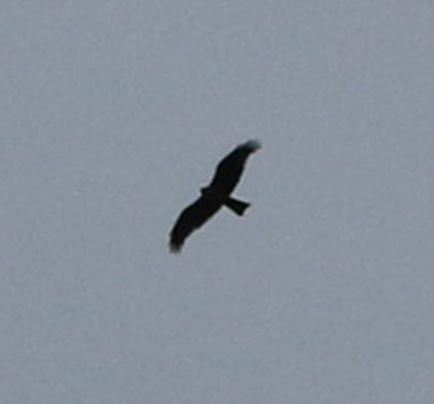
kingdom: Animalia
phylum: Chordata
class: Aves
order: Accipitriformes
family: Accipitridae
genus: Milvus
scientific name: Milvus migrans
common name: Black kite
